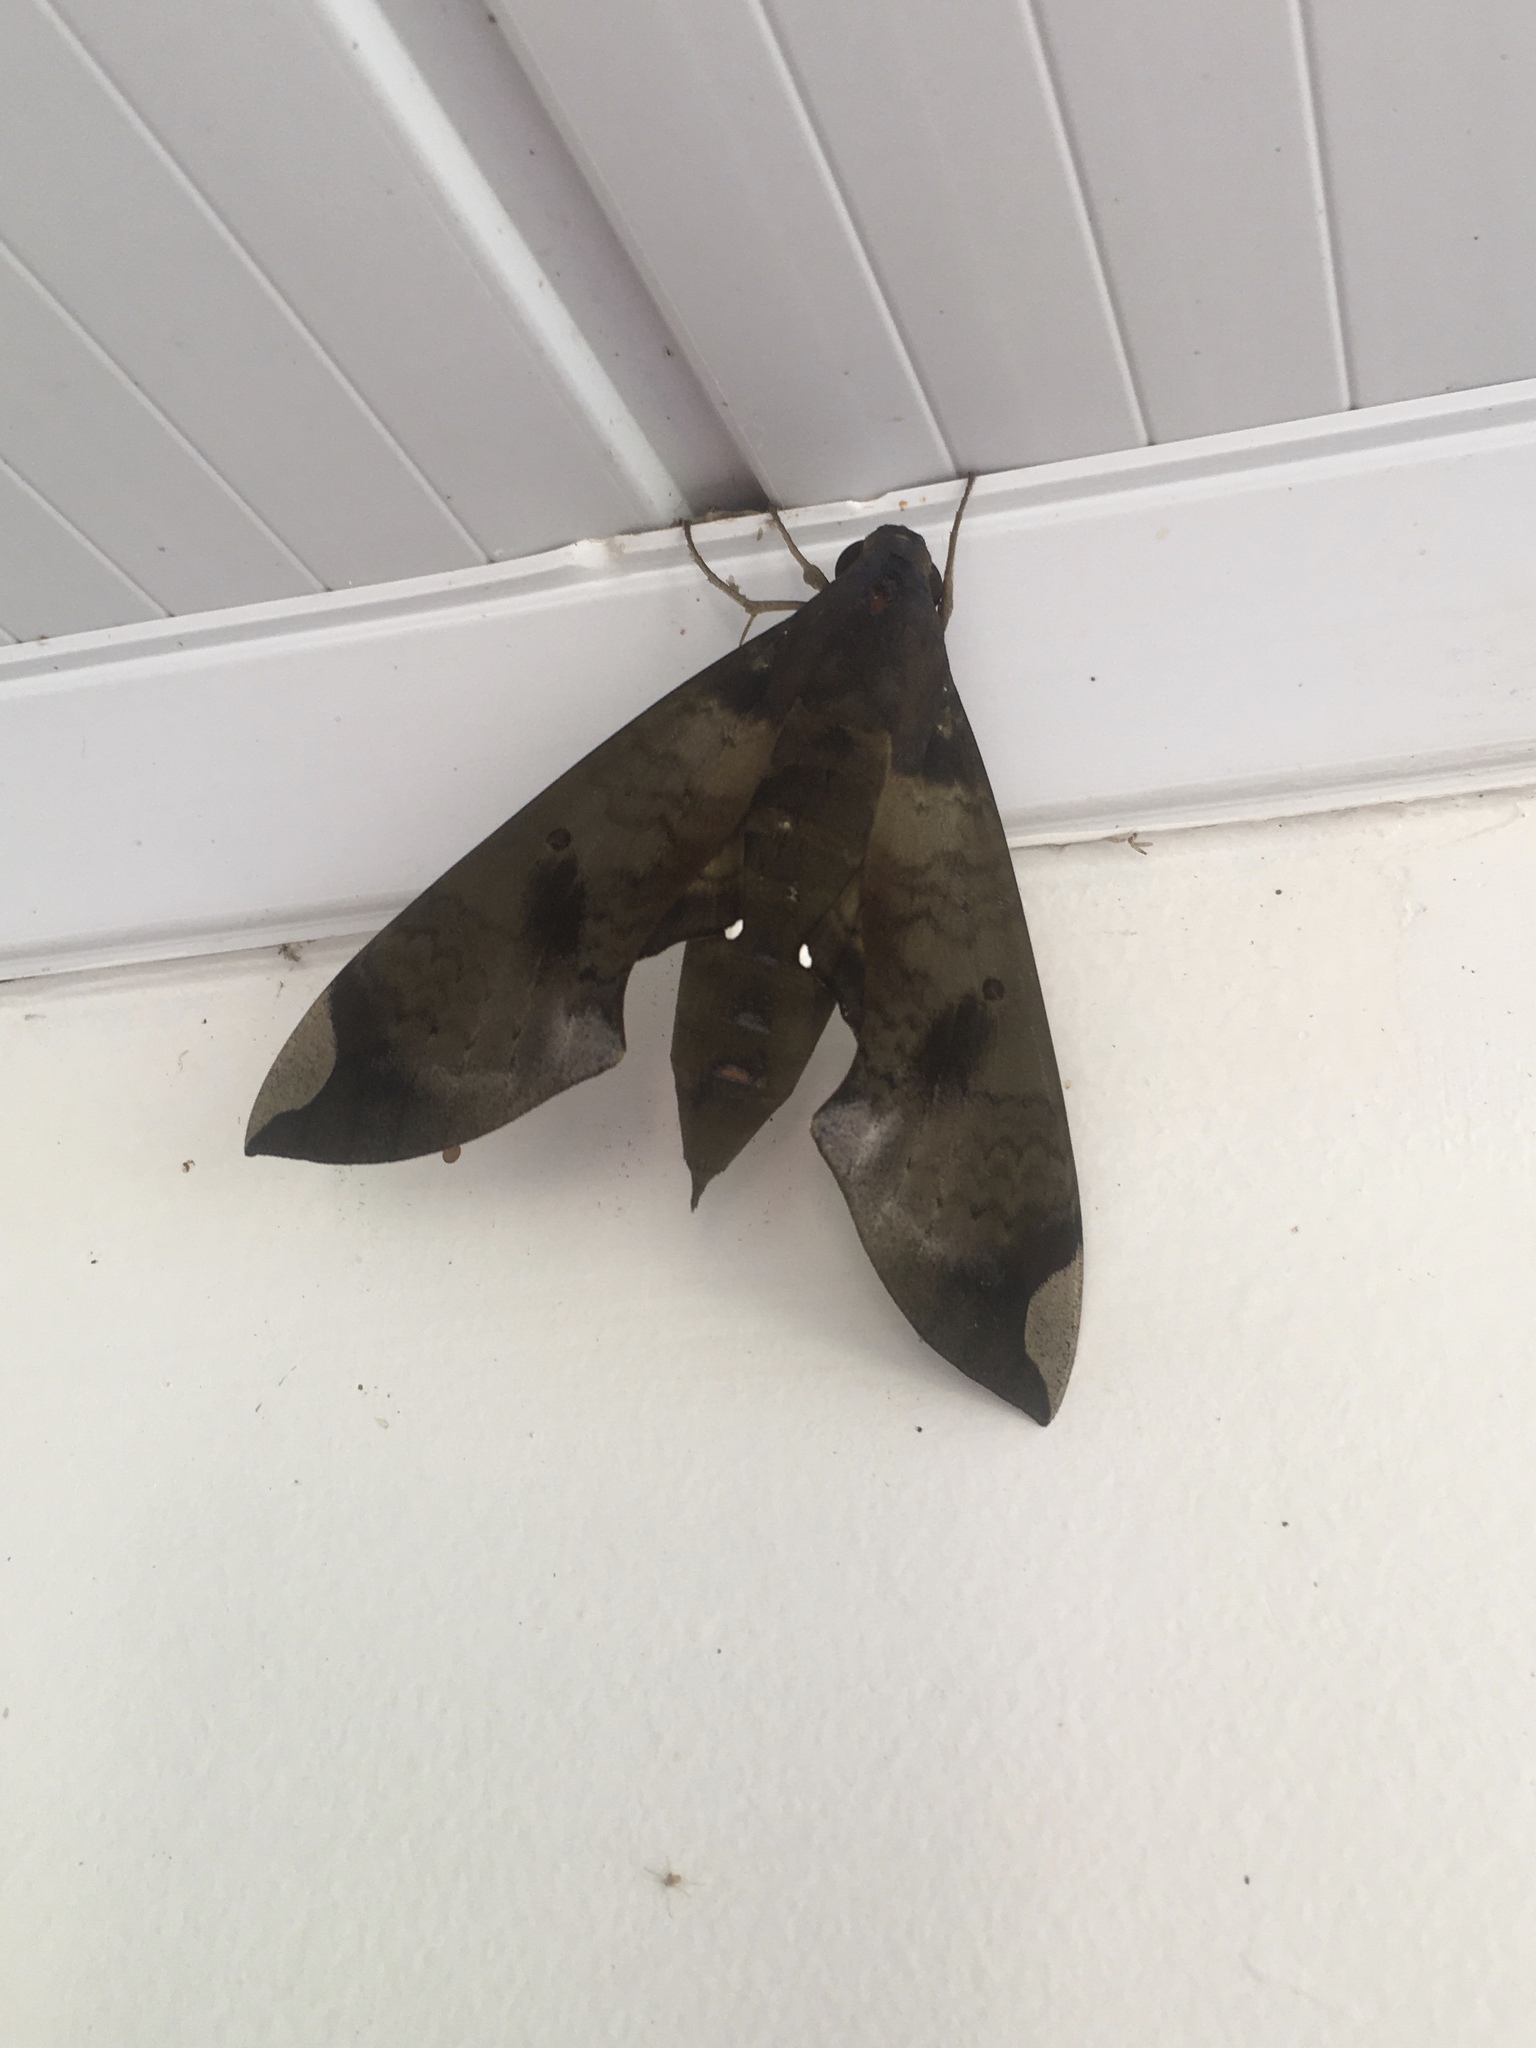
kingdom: Animalia
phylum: Arthropoda
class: Insecta
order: Lepidoptera
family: Sphingidae
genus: Pachylia
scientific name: Pachylia ficus
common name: Fig sphinx
